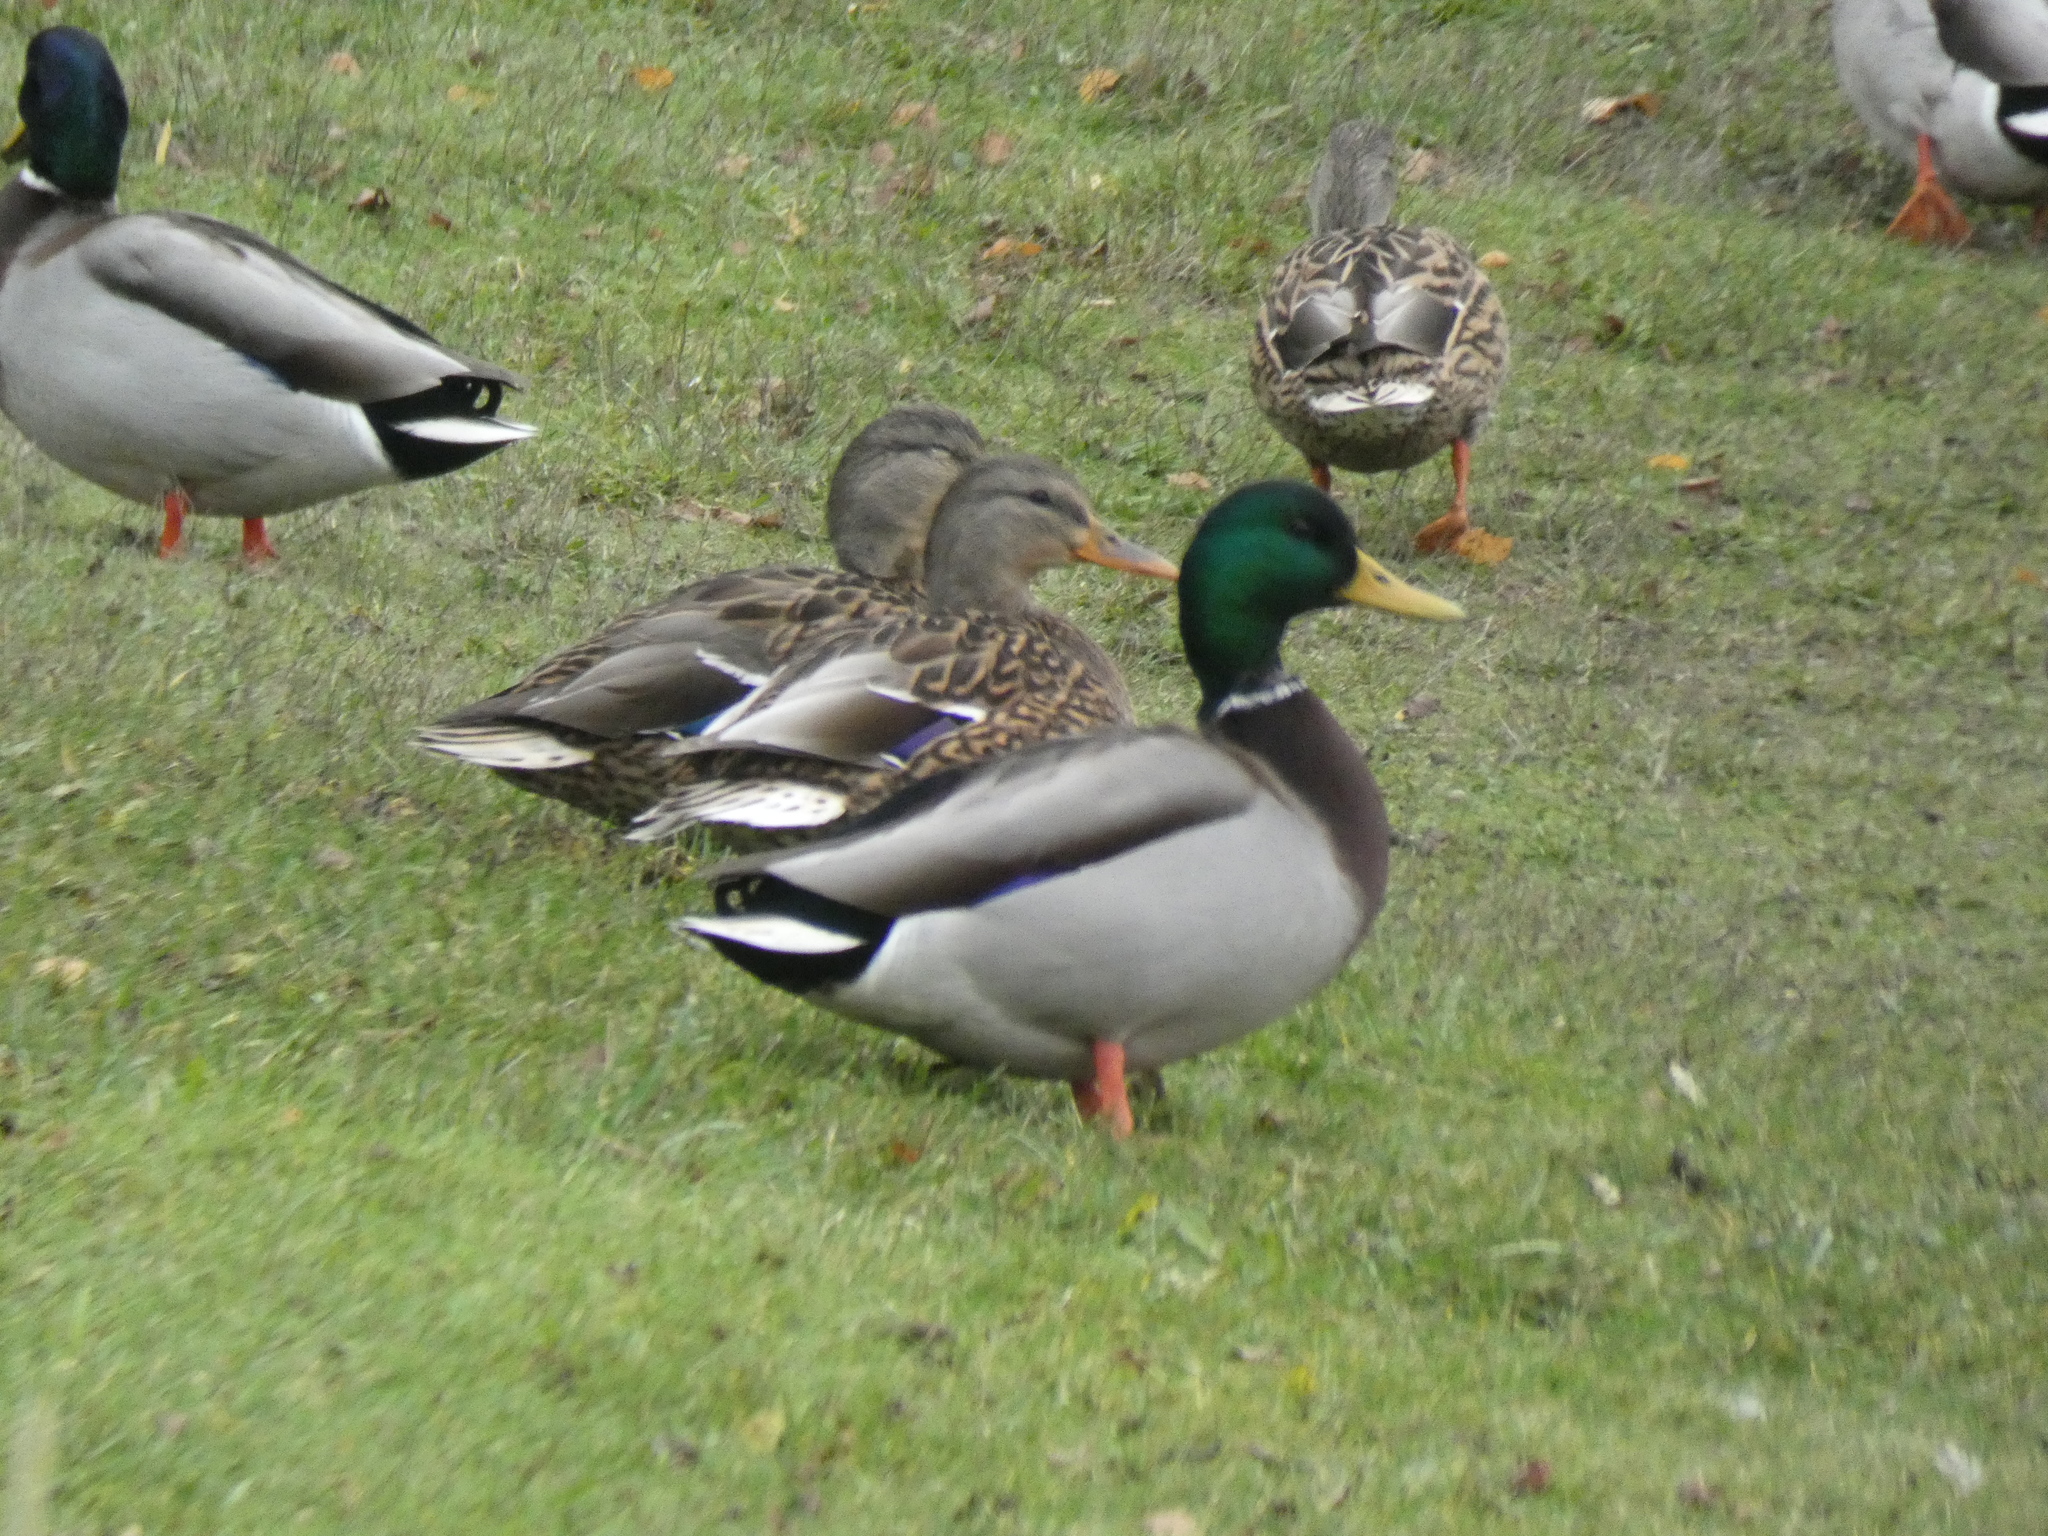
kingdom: Animalia
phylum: Chordata
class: Aves
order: Anseriformes
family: Anatidae
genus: Anas
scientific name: Anas platyrhynchos
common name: Mallard
